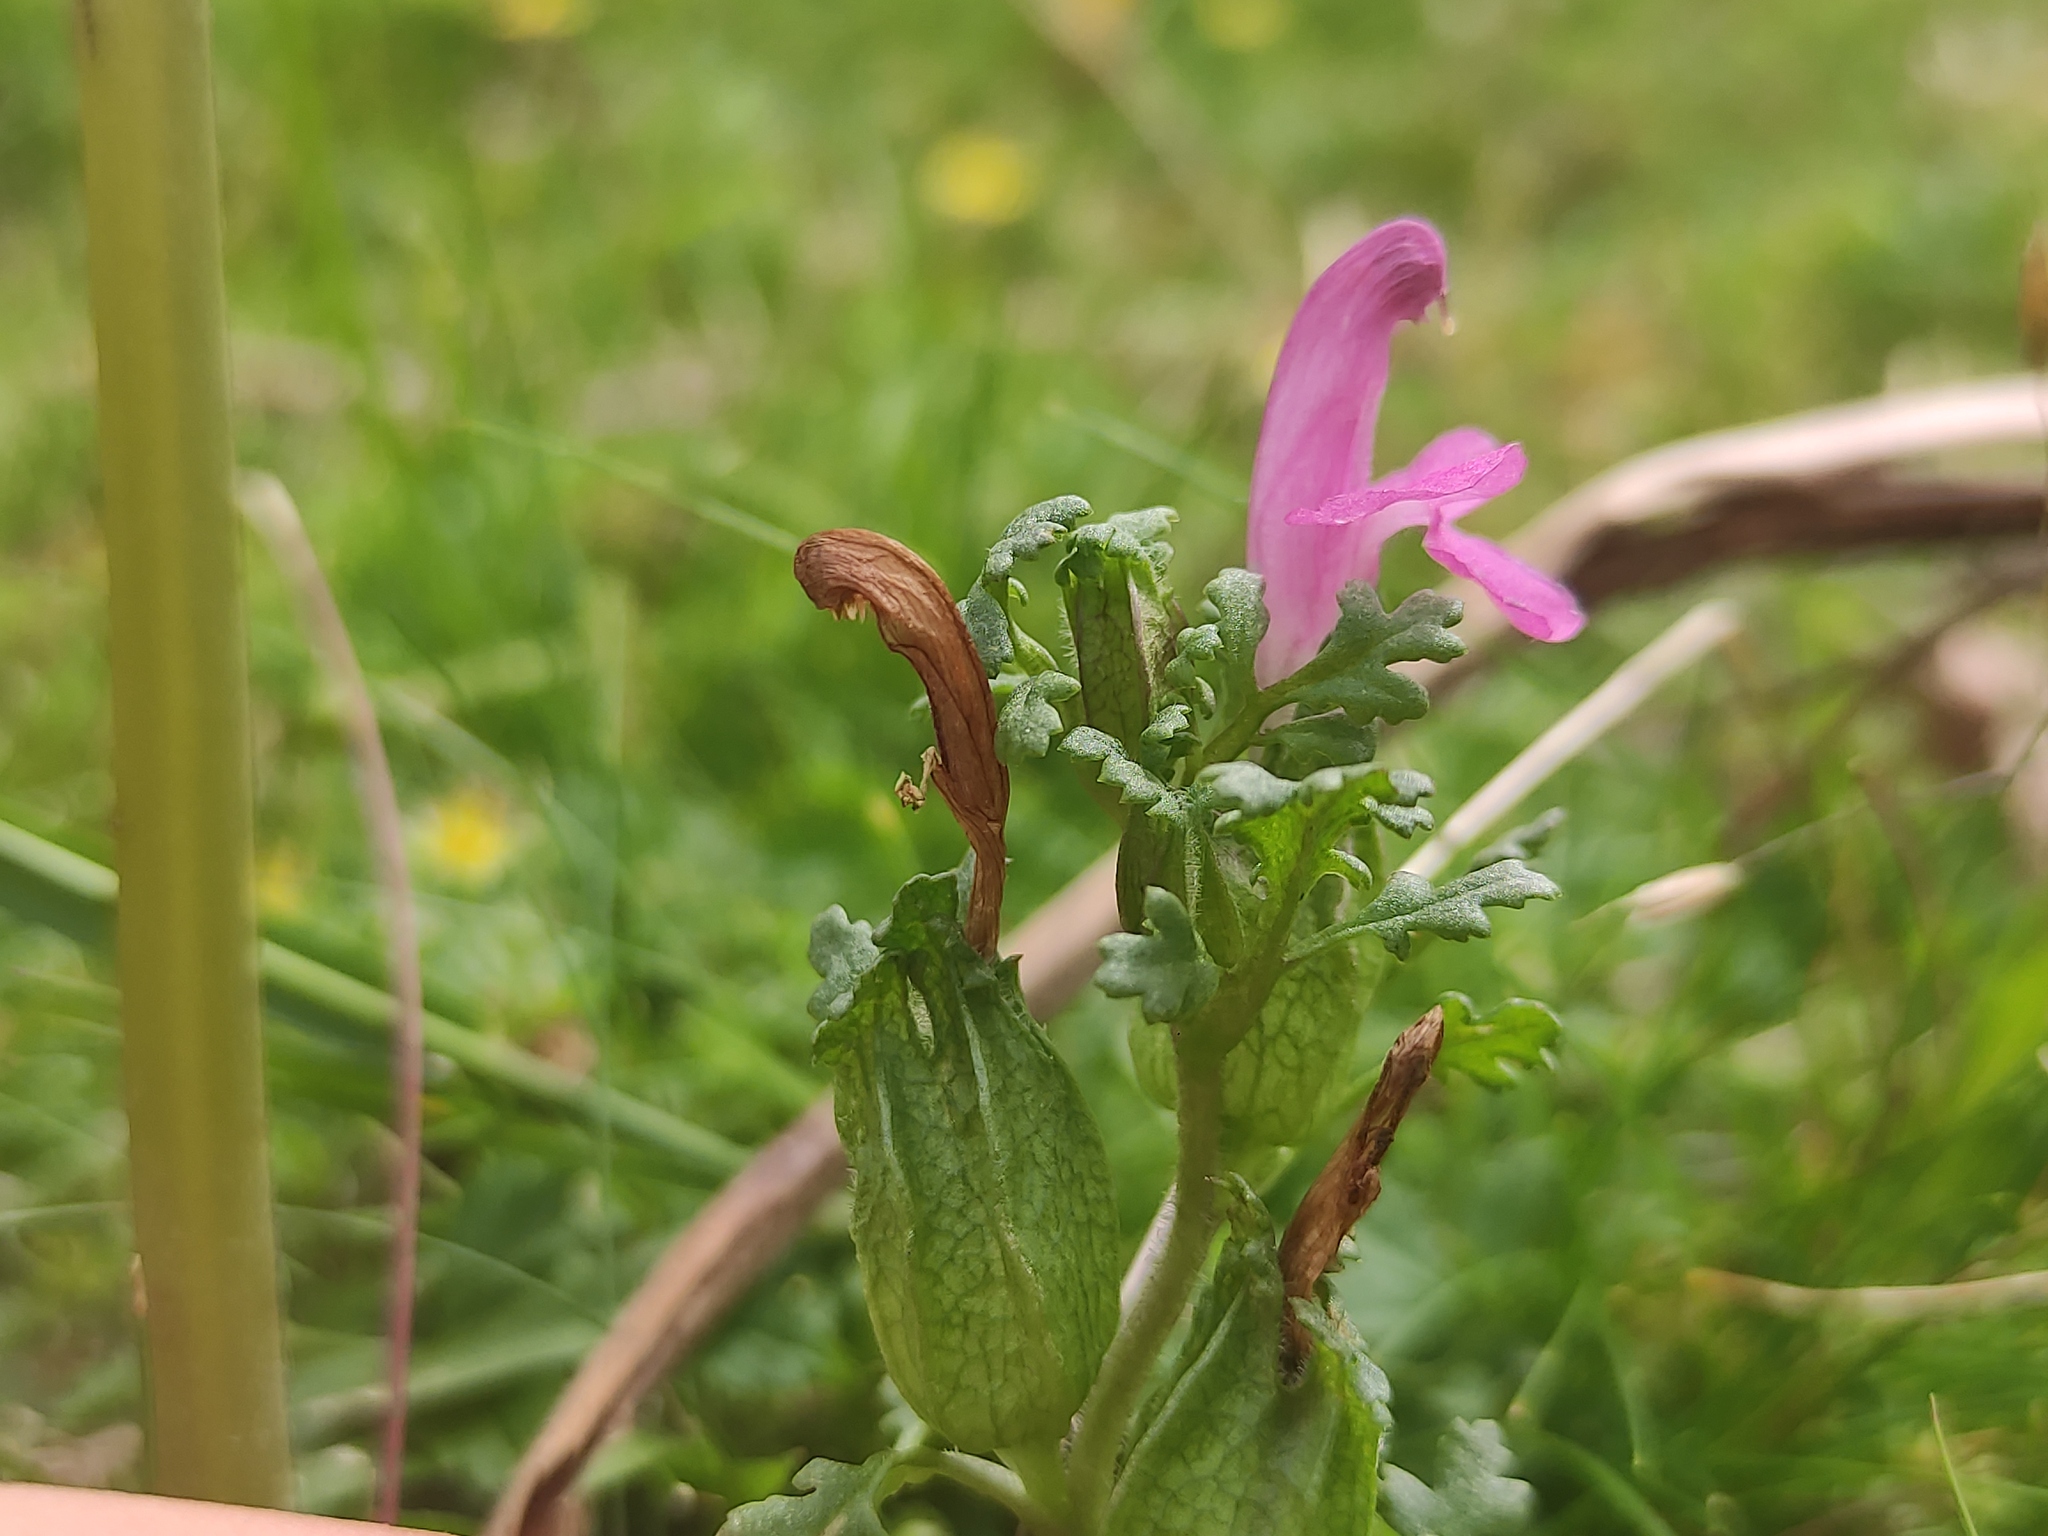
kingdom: Plantae
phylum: Tracheophyta
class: Magnoliopsida
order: Lamiales
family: Orobanchaceae
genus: Pedicularis
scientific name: Pedicularis sylvatica
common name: Lousewort
